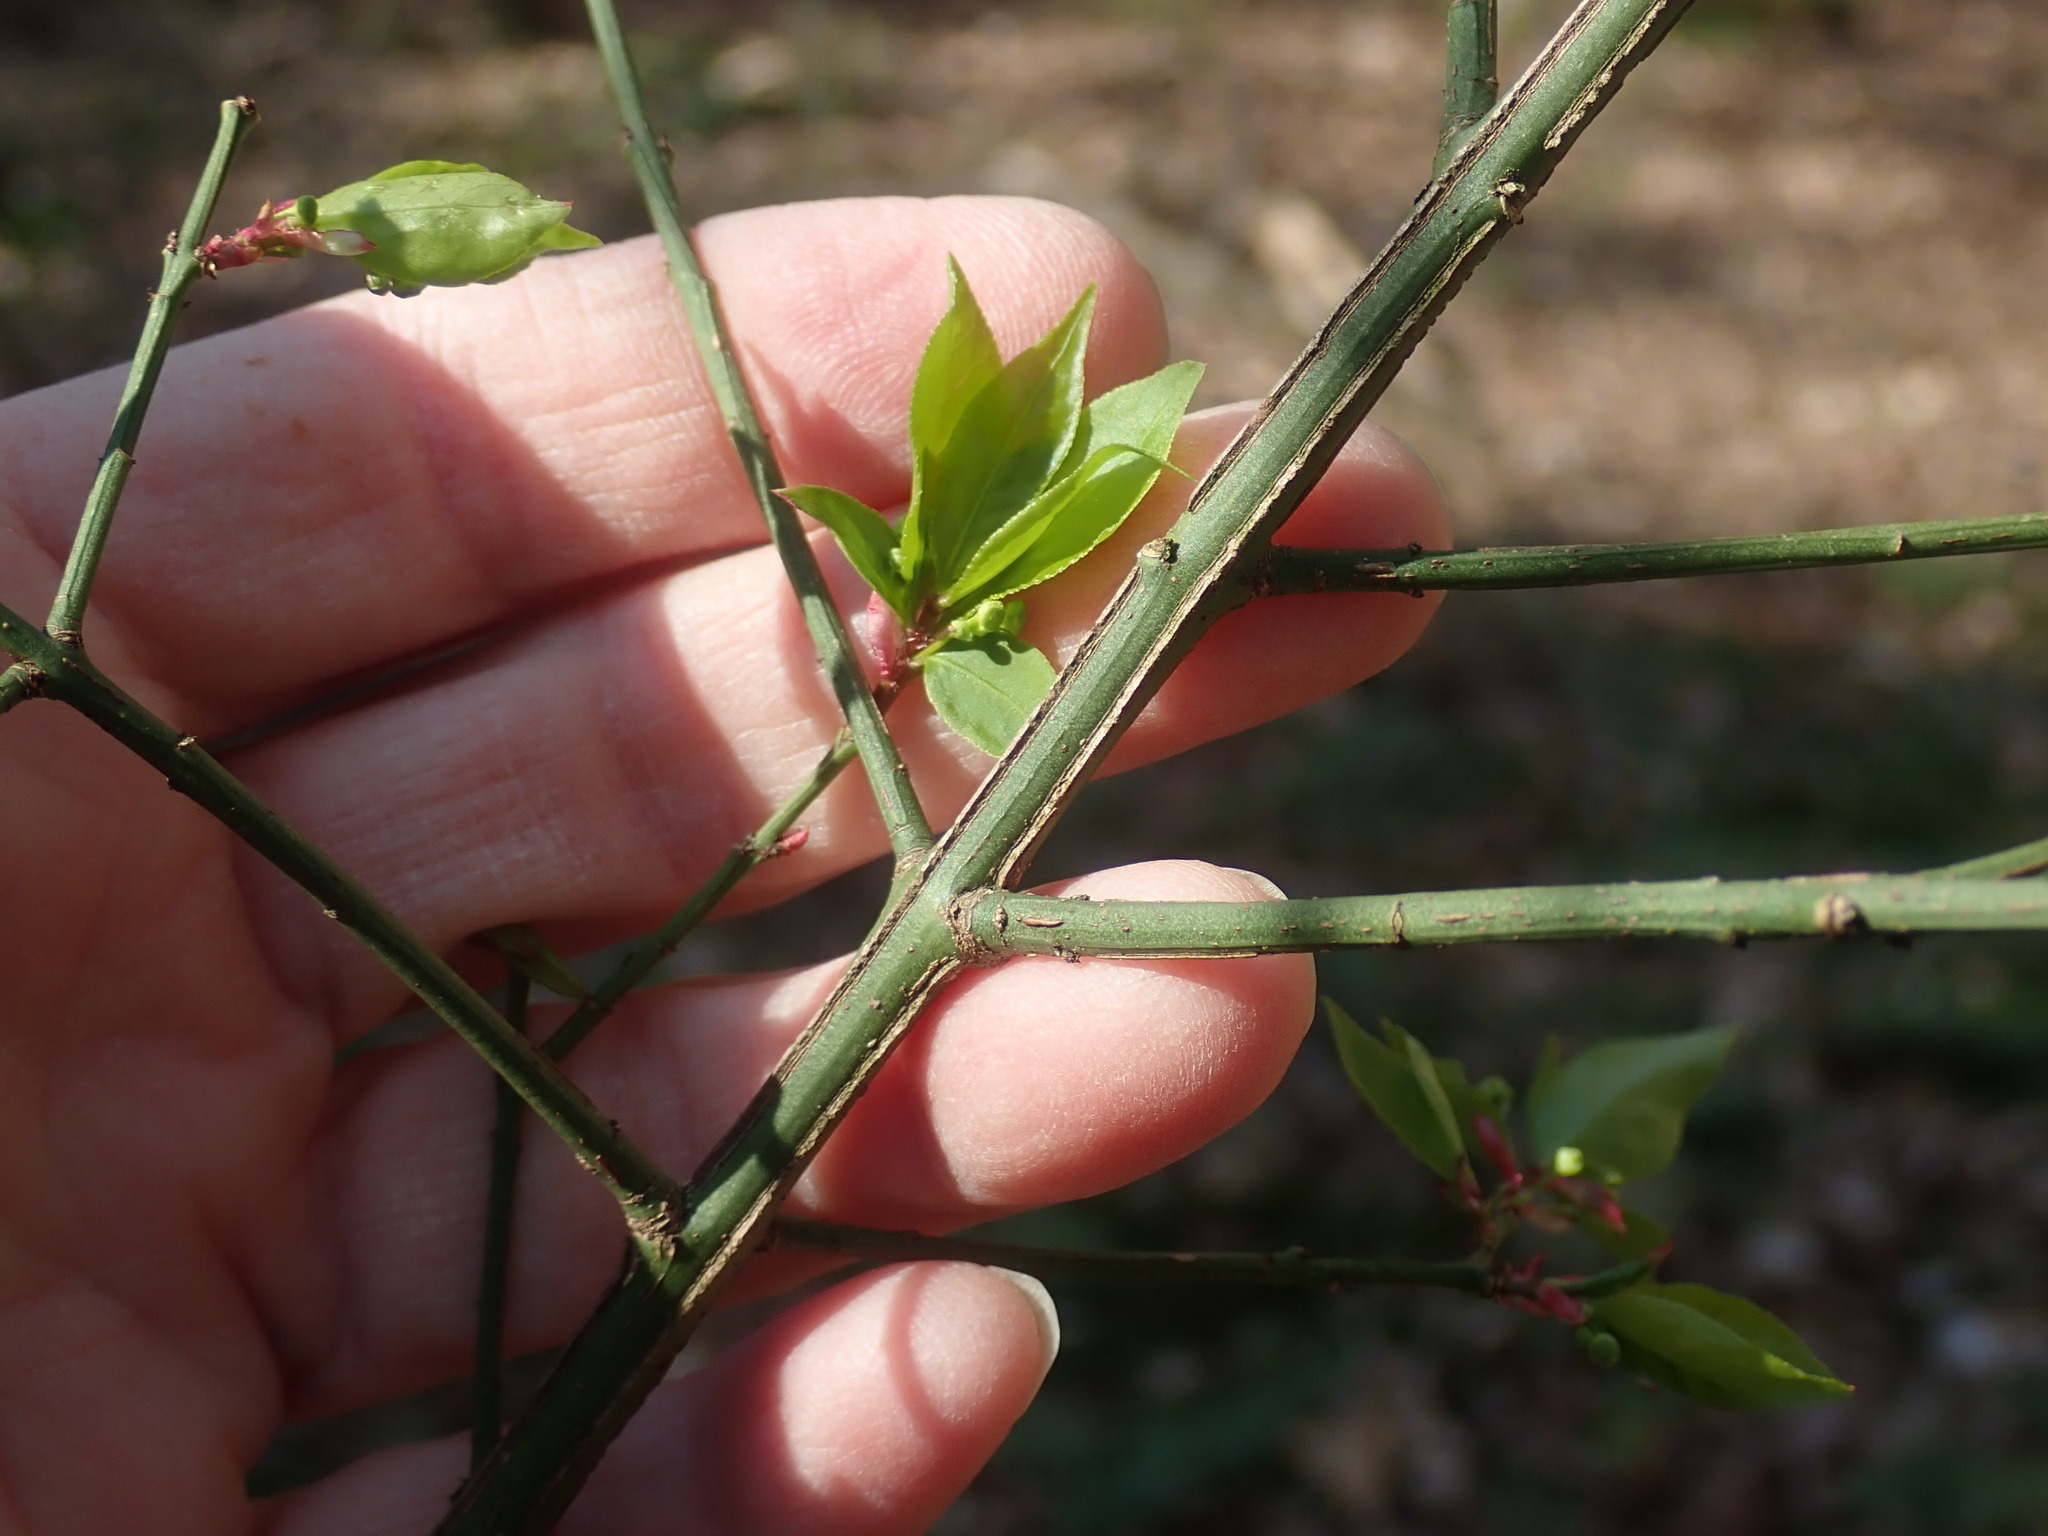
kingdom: Plantae
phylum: Tracheophyta
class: Magnoliopsida
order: Celastrales
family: Celastraceae
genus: Euonymus
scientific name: Euonymus alatus
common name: Winged euonymus
